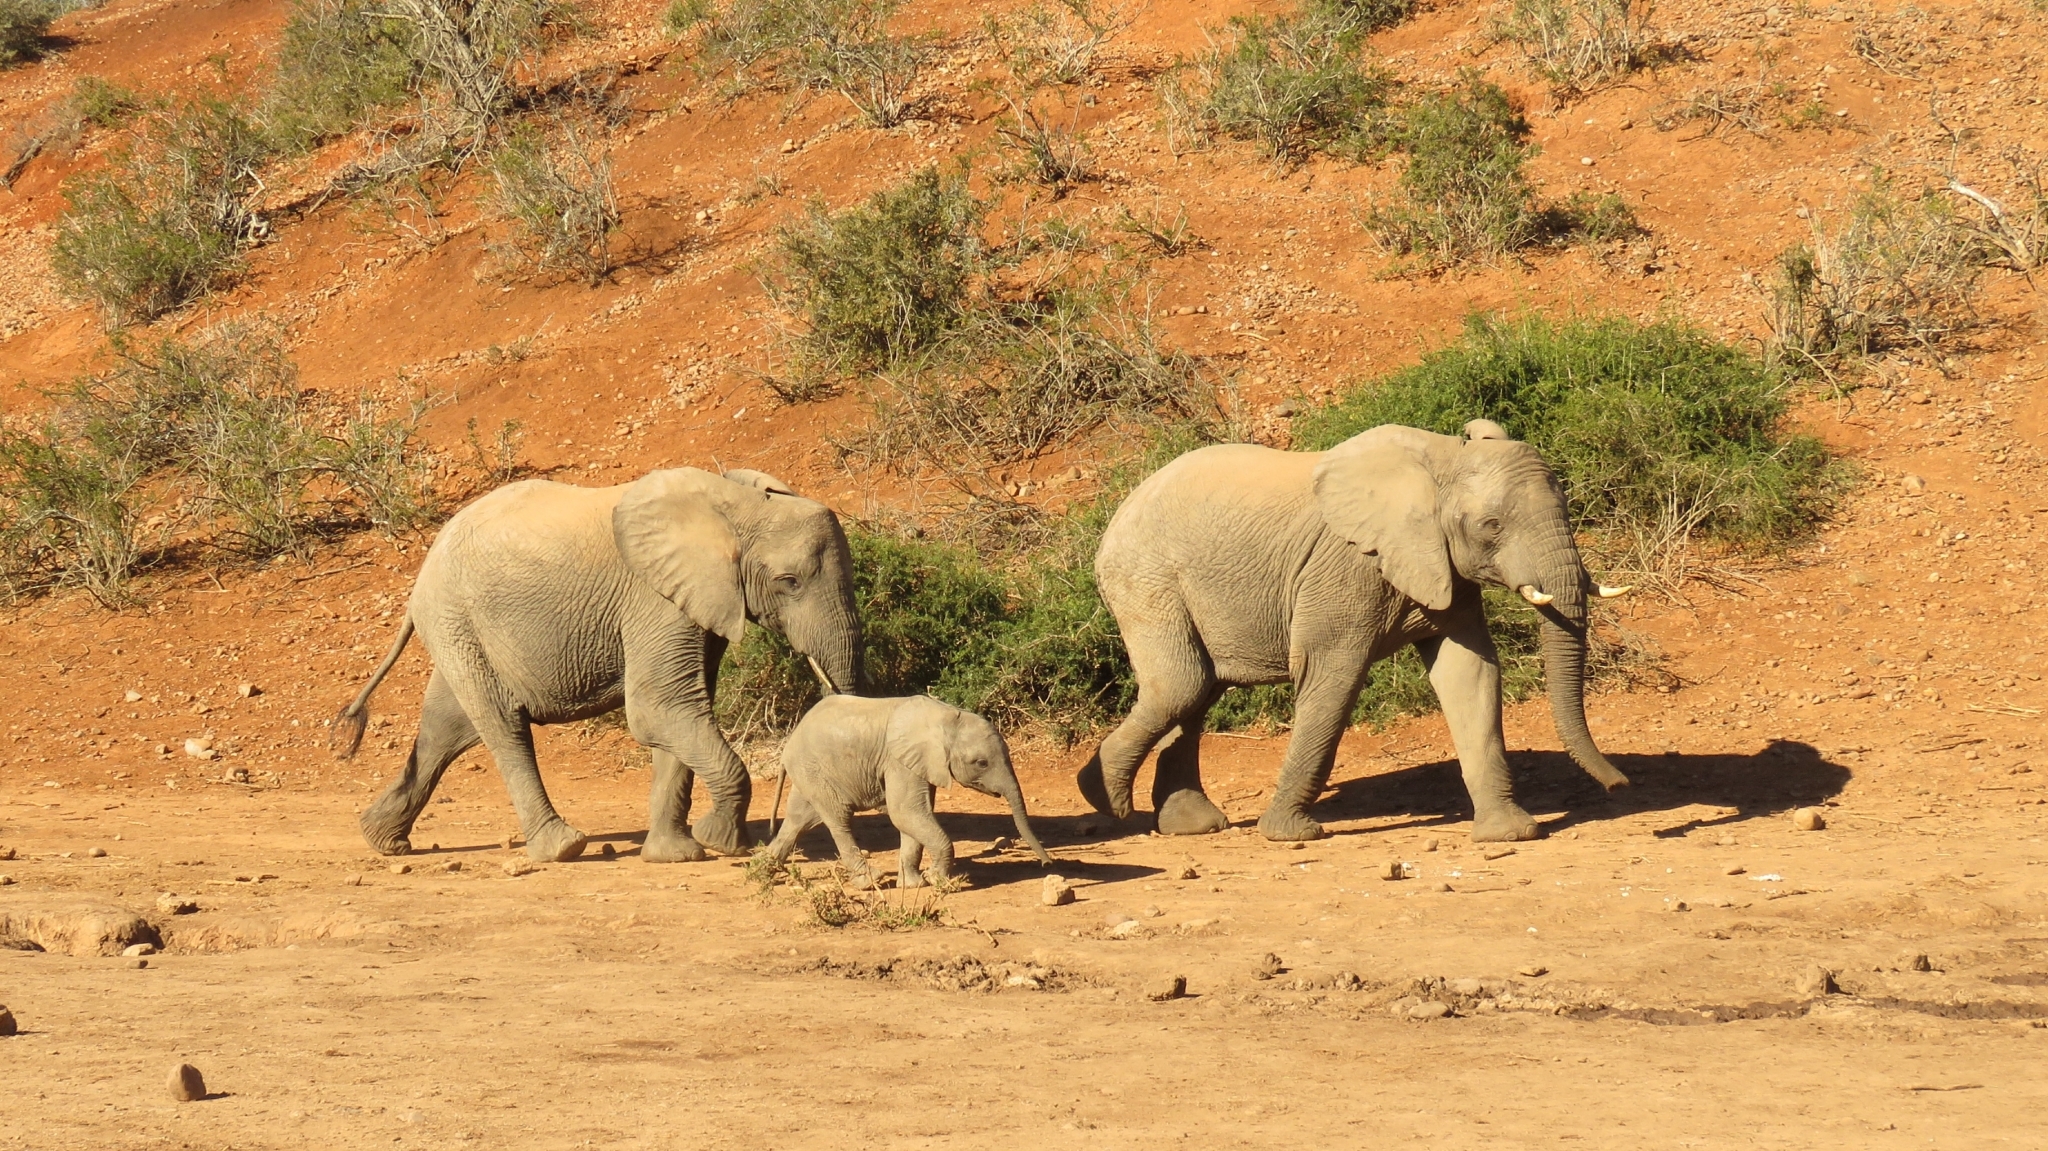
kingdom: Animalia
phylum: Chordata
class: Mammalia
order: Proboscidea
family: Elephantidae
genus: Loxodonta
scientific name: Loxodonta africana
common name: African elephant
